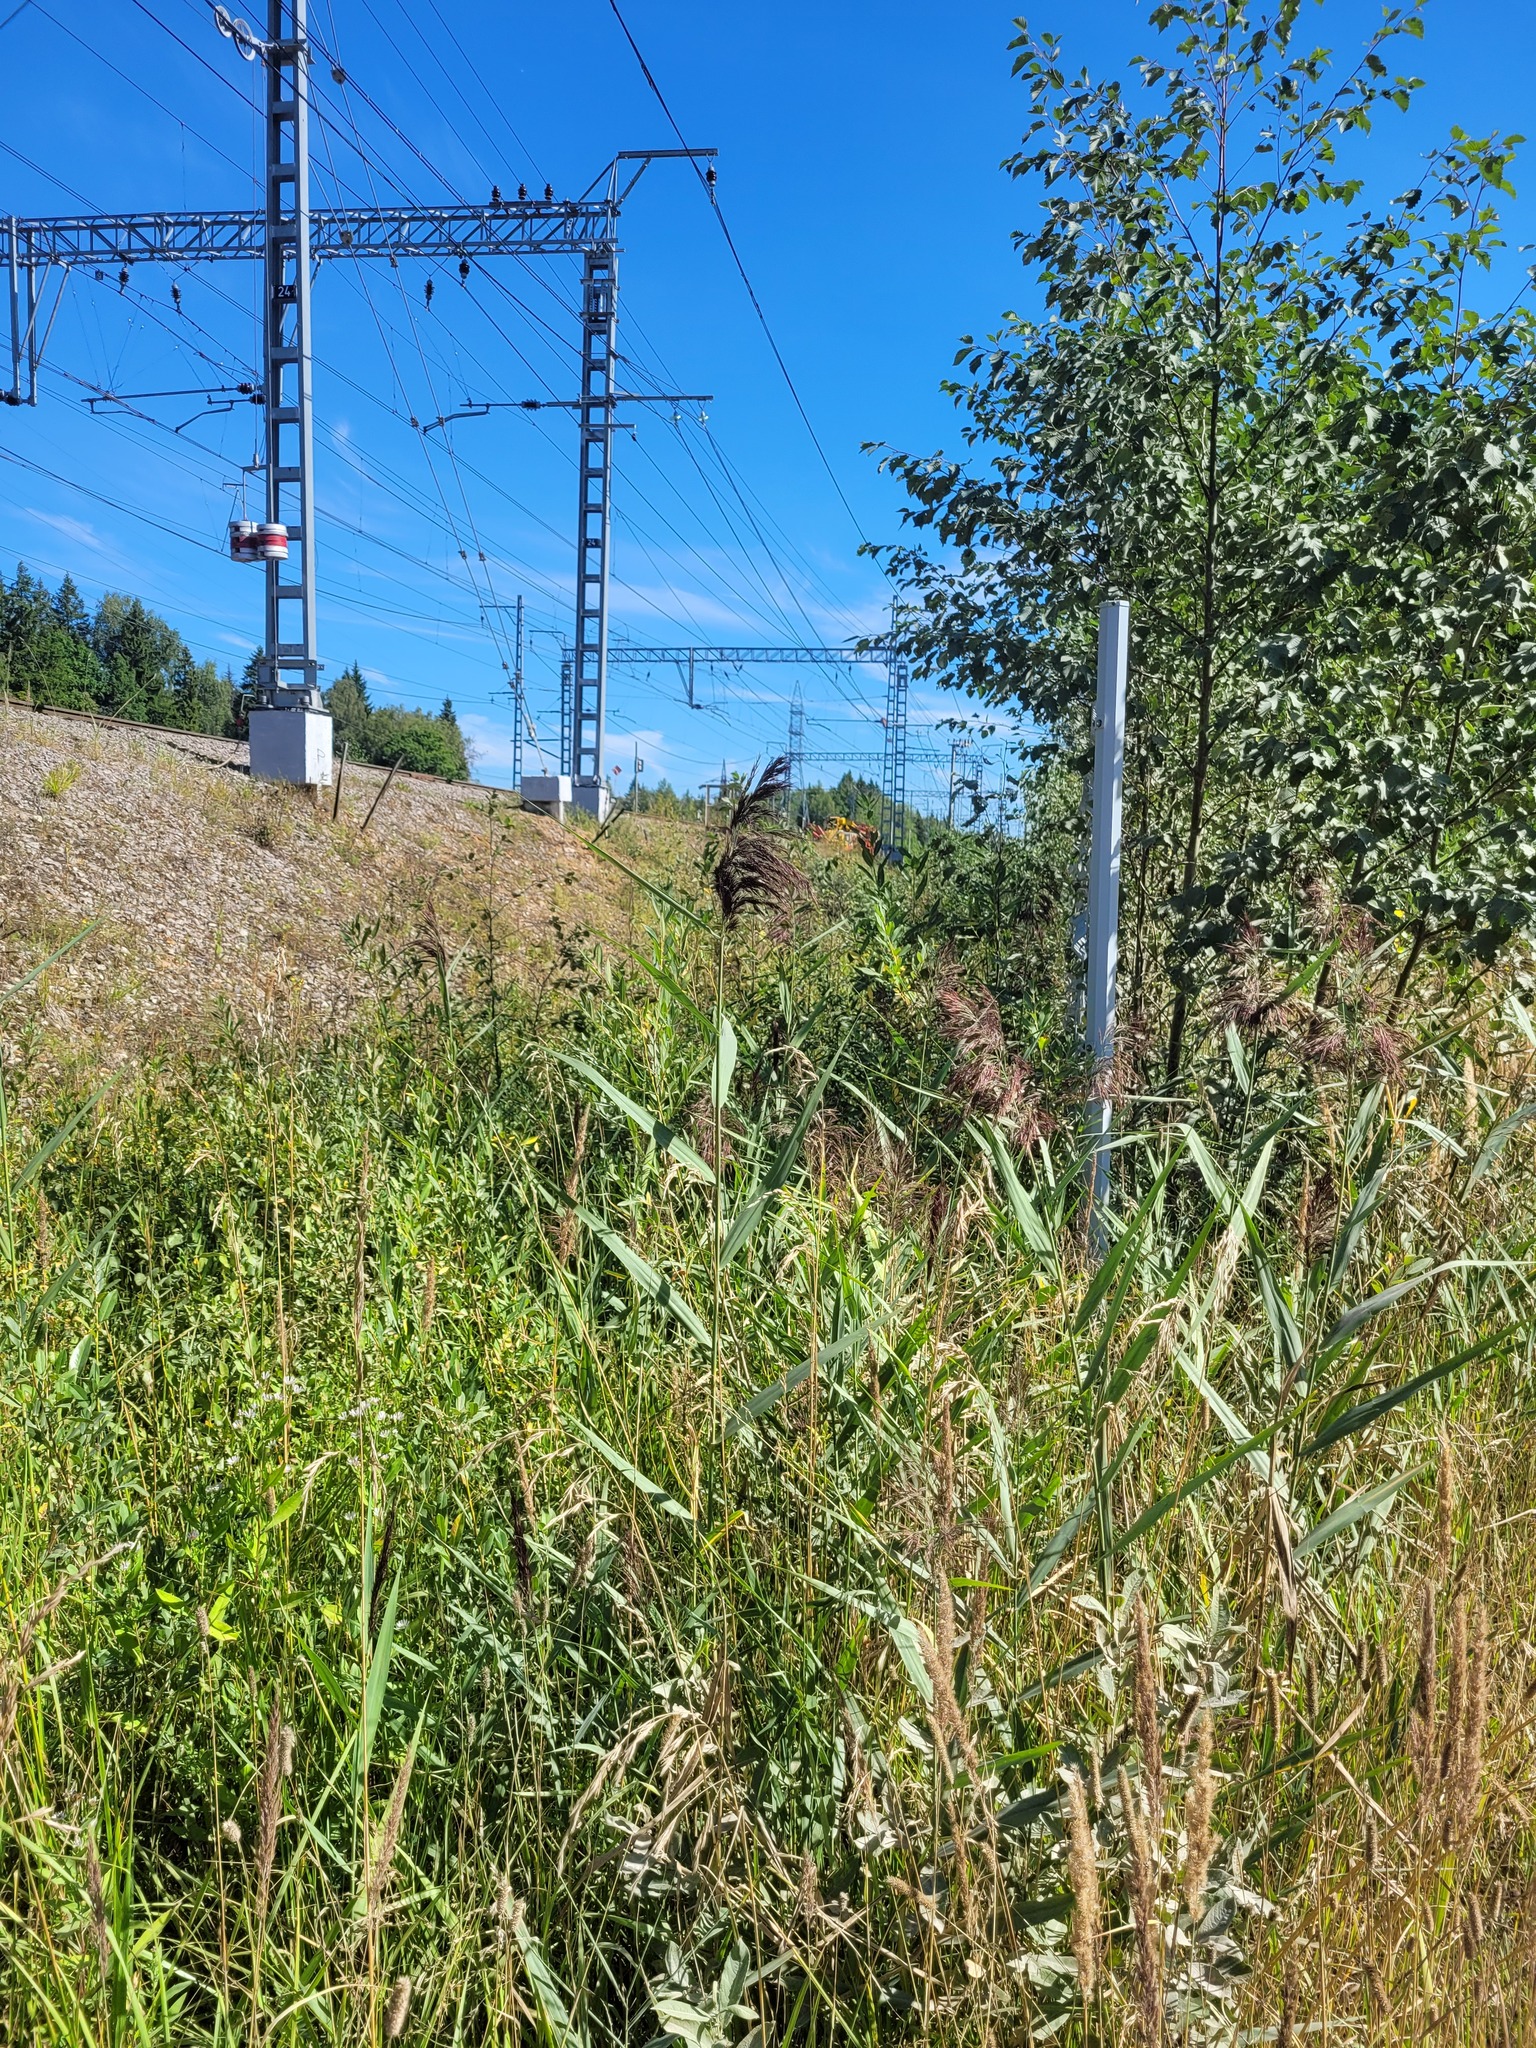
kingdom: Plantae
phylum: Tracheophyta
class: Liliopsida
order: Poales
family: Poaceae
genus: Phragmites
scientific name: Phragmites australis
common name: Common reed
